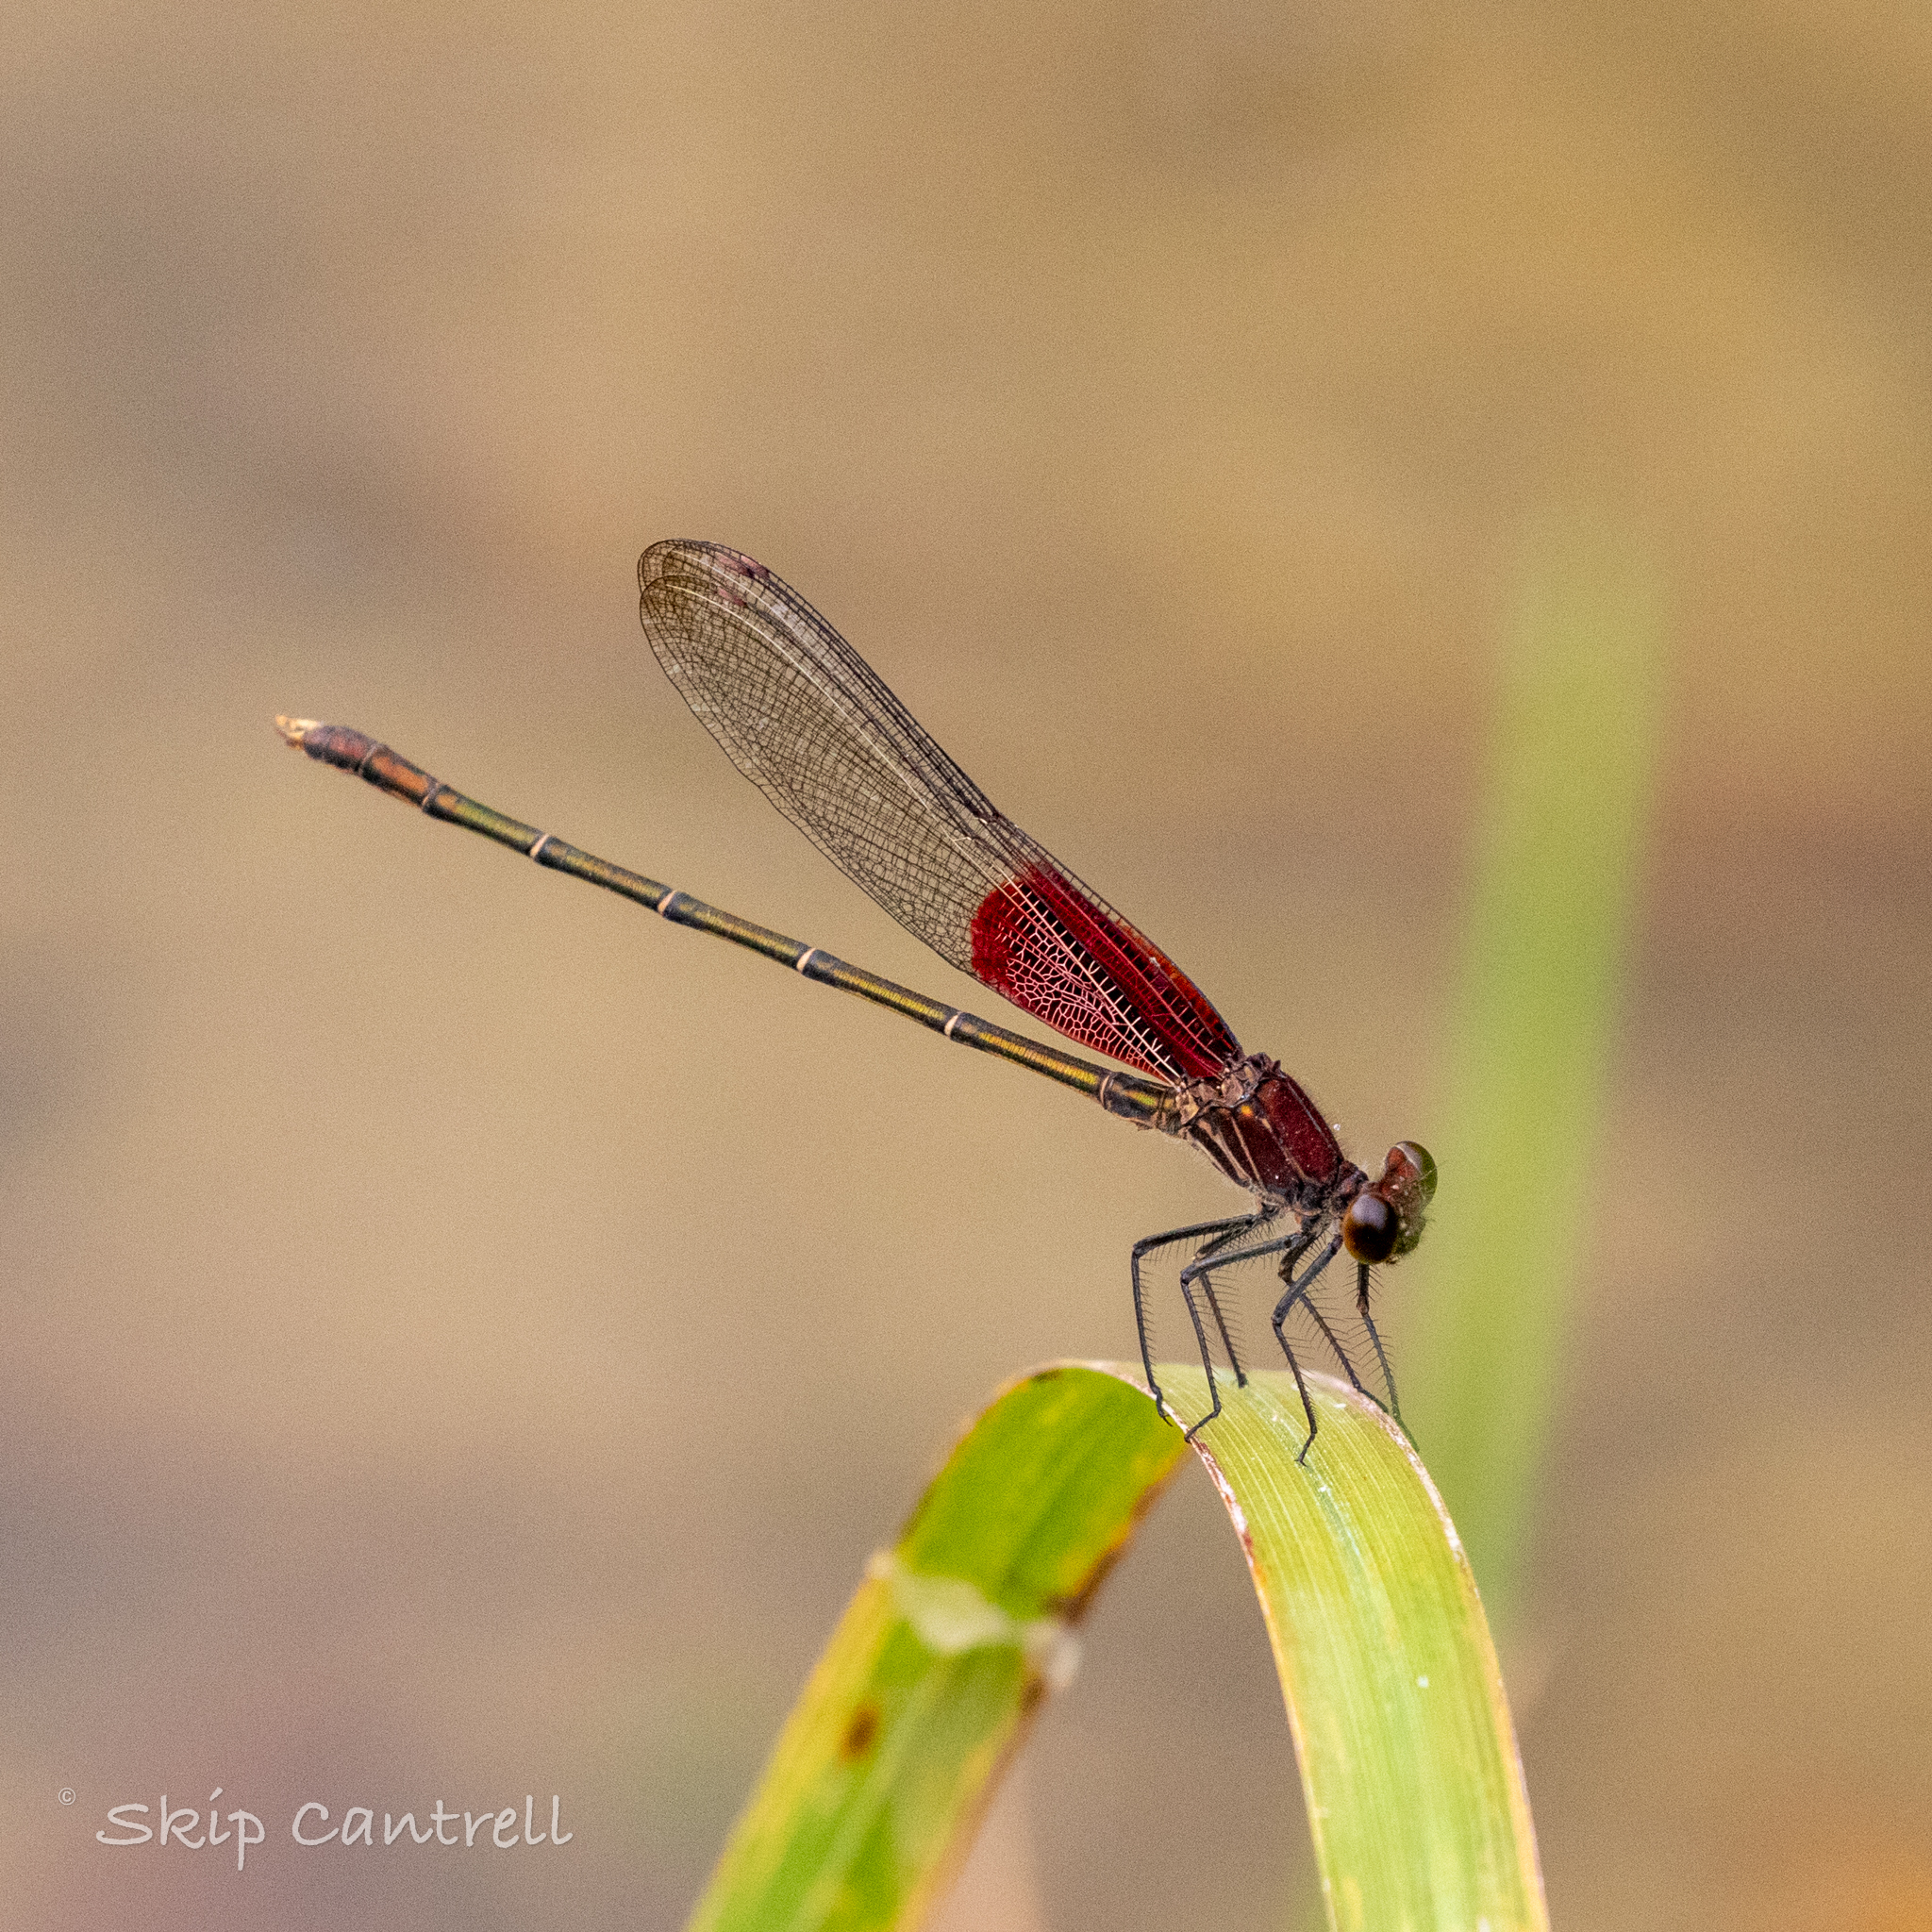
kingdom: Animalia
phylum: Arthropoda
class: Insecta
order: Odonata
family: Calopterygidae
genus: Hetaerina
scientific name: Hetaerina americana
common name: American rubyspot
